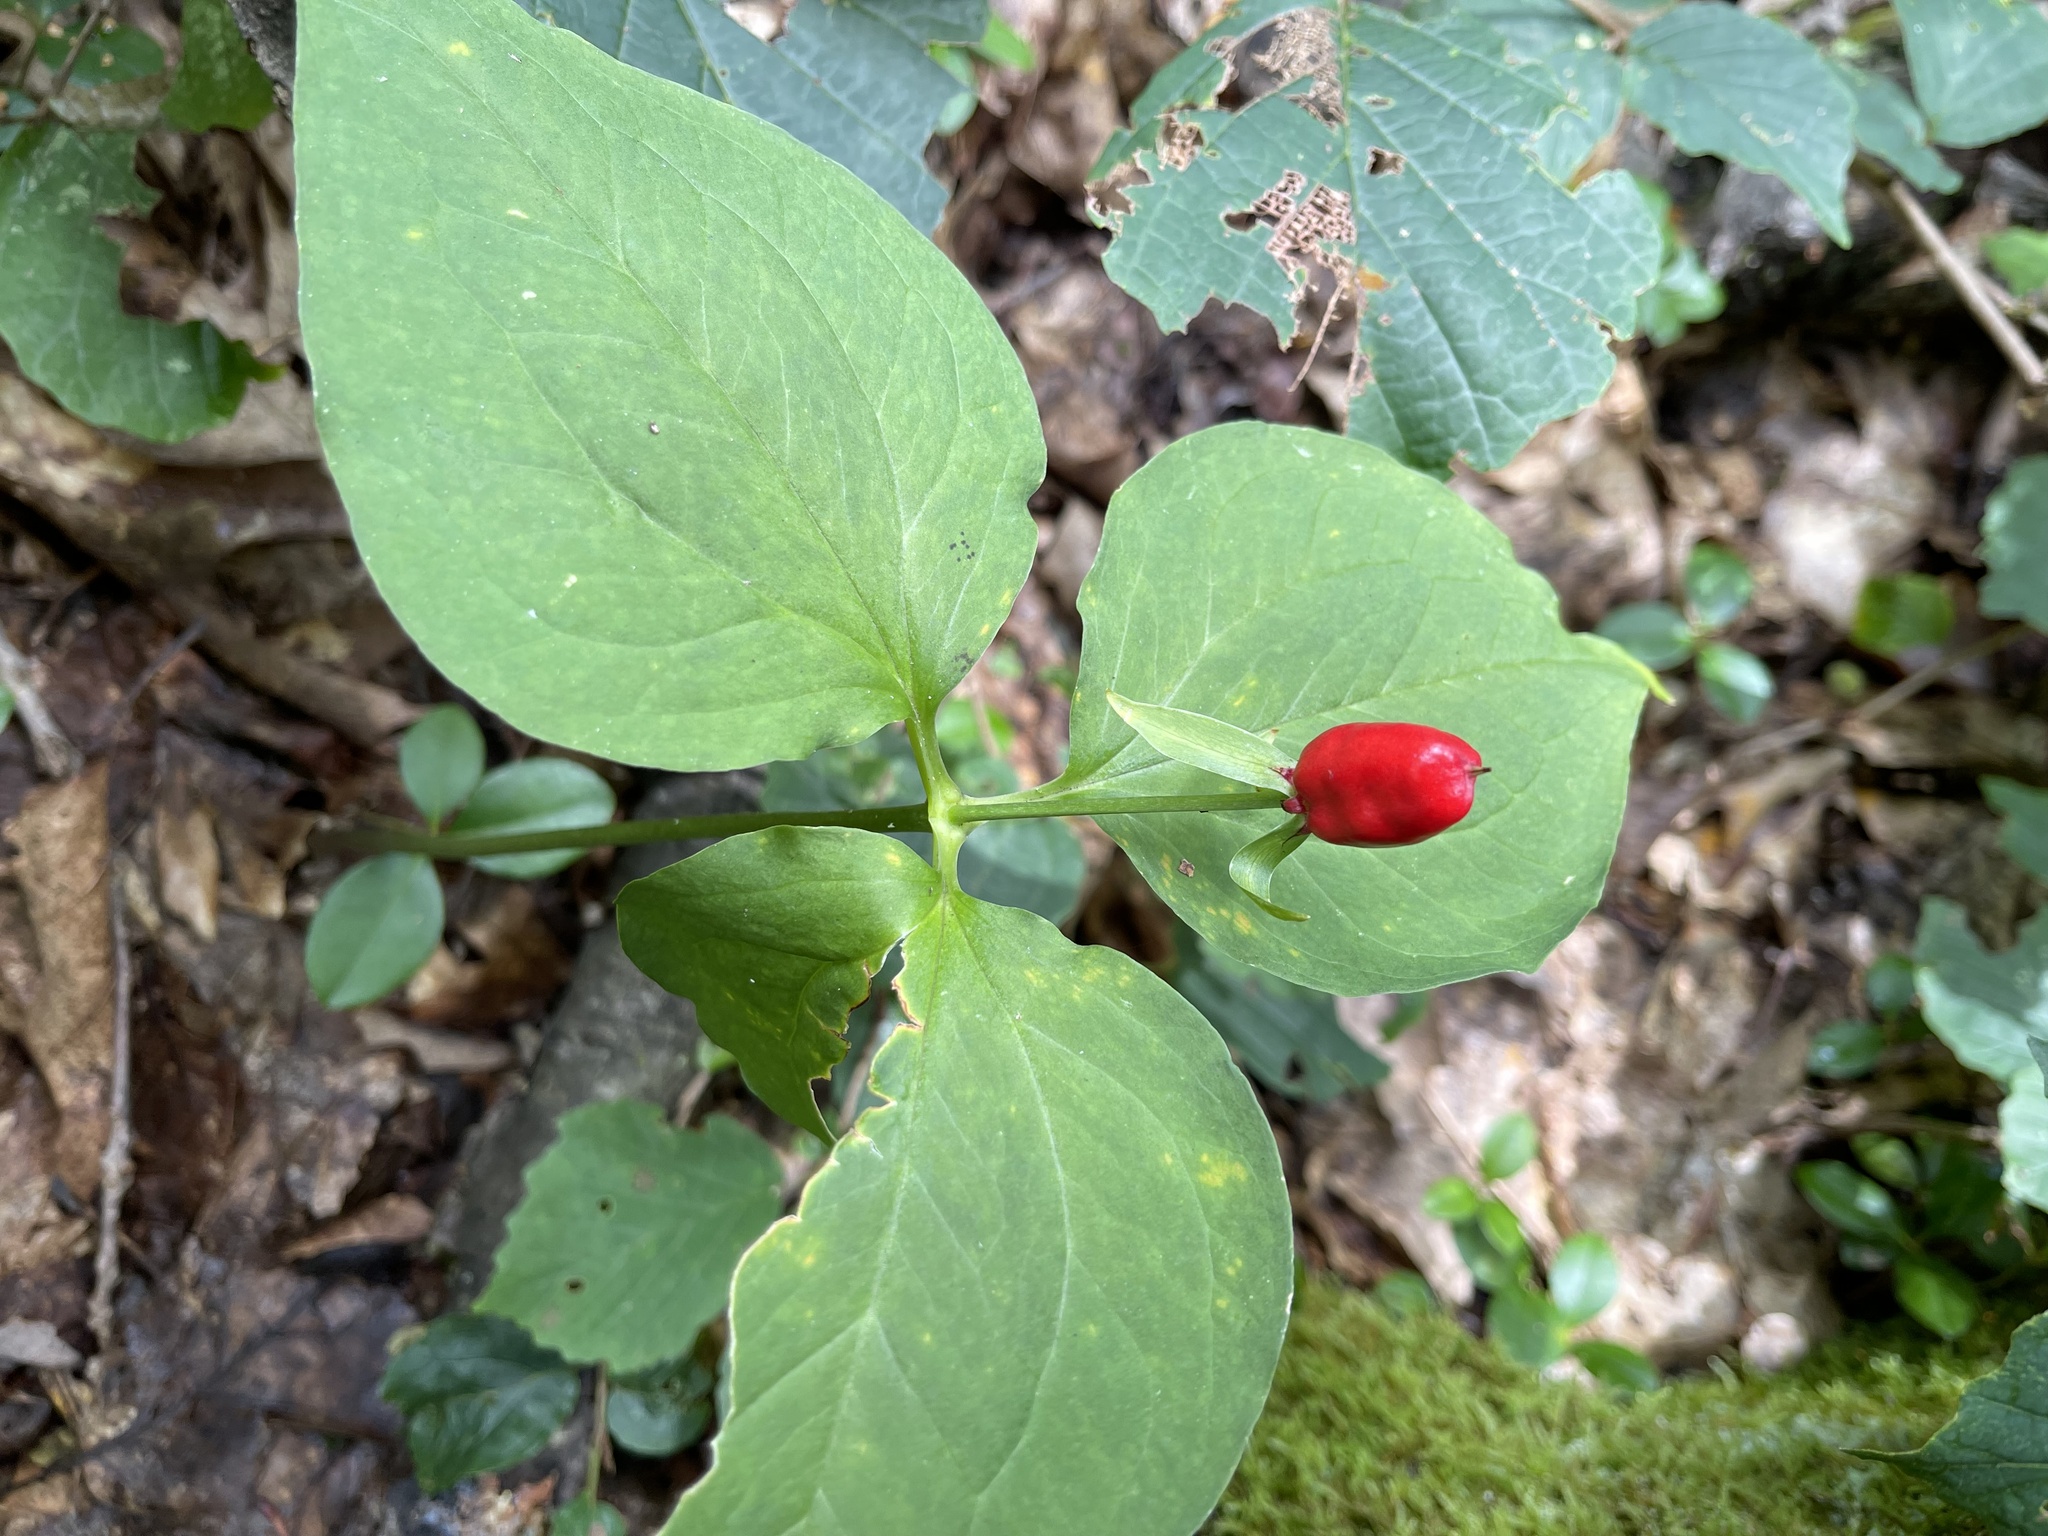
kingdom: Plantae
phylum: Tracheophyta
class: Liliopsida
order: Liliales
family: Melanthiaceae
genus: Trillium
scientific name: Trillium undulatum
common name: Paint trillium
